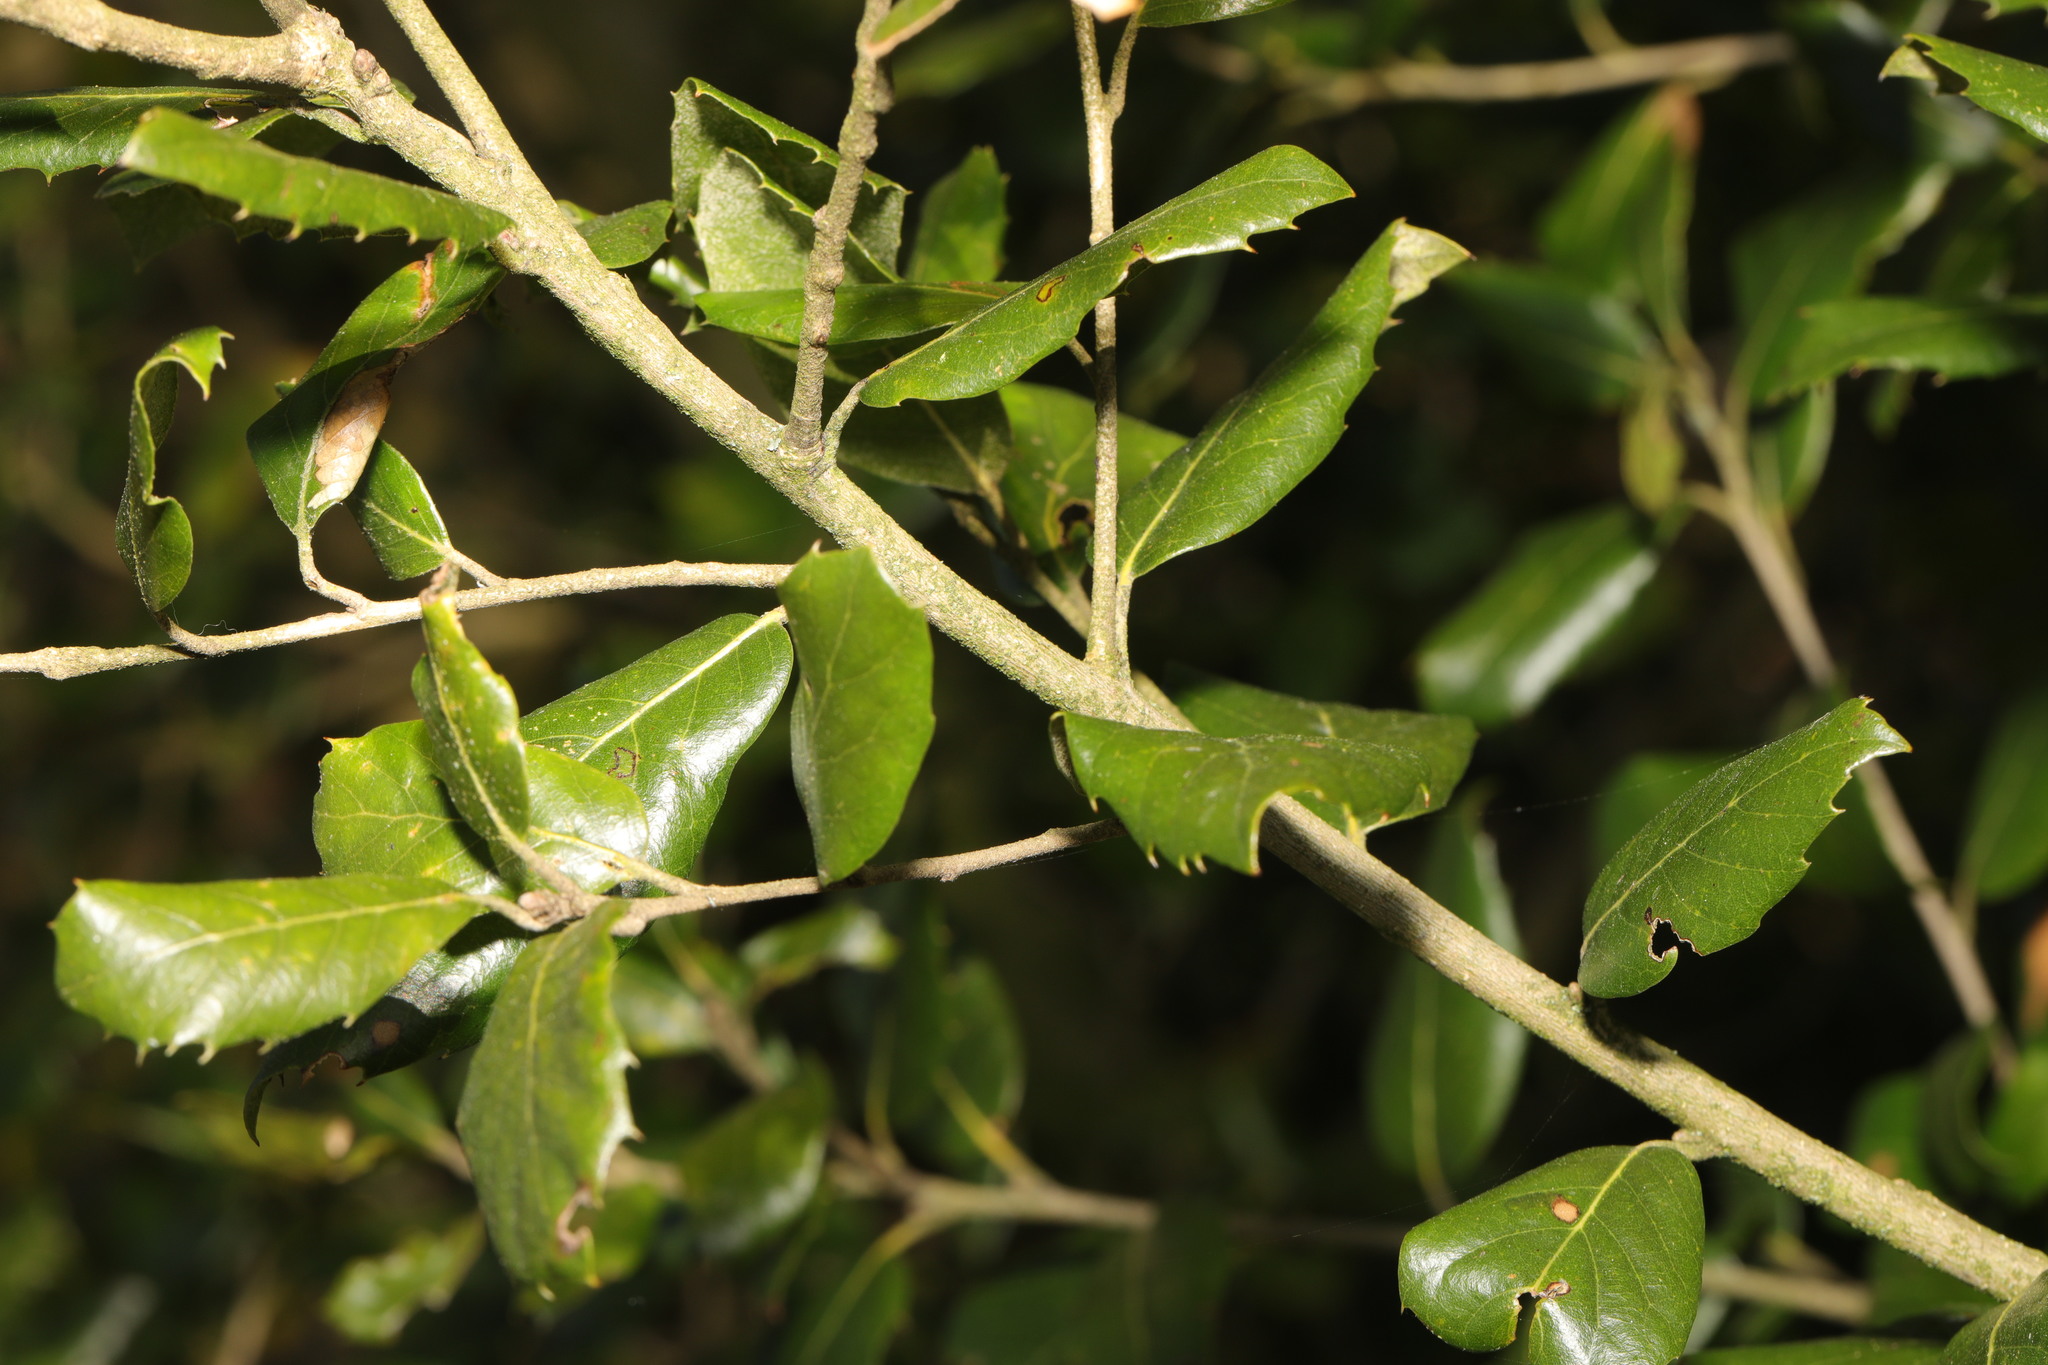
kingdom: Plantae
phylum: Tracheophyta
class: Magnoliopsida
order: Fagales
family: Fagaceae
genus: Quercus
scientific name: Quercus ilex
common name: Evergreen oak
